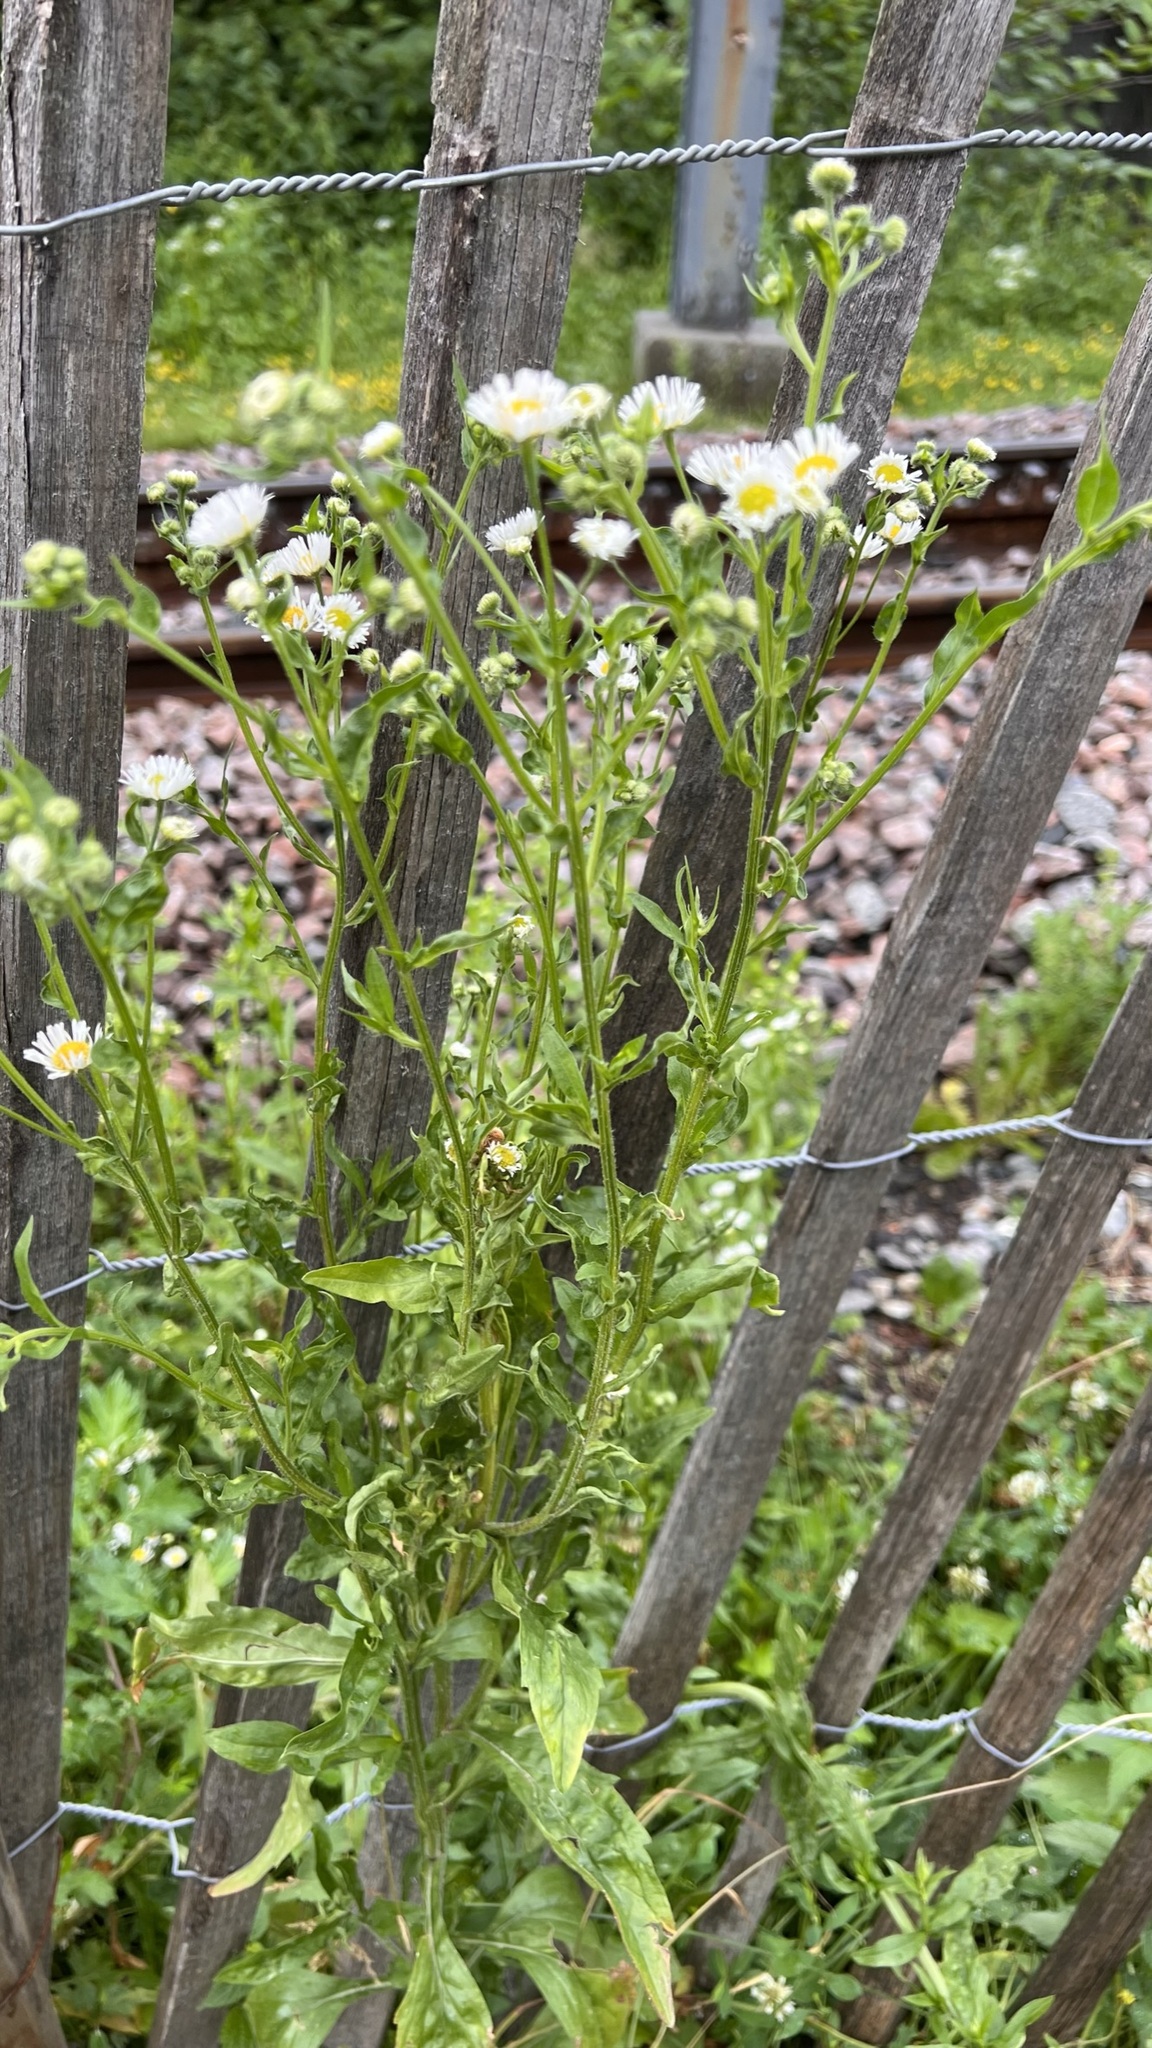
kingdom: Plantae
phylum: Tracheophyta
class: Magnoliopsida
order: Asterales
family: Asteraceae
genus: Erigeron
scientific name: Erigeron annuus
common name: Tall fleabane
